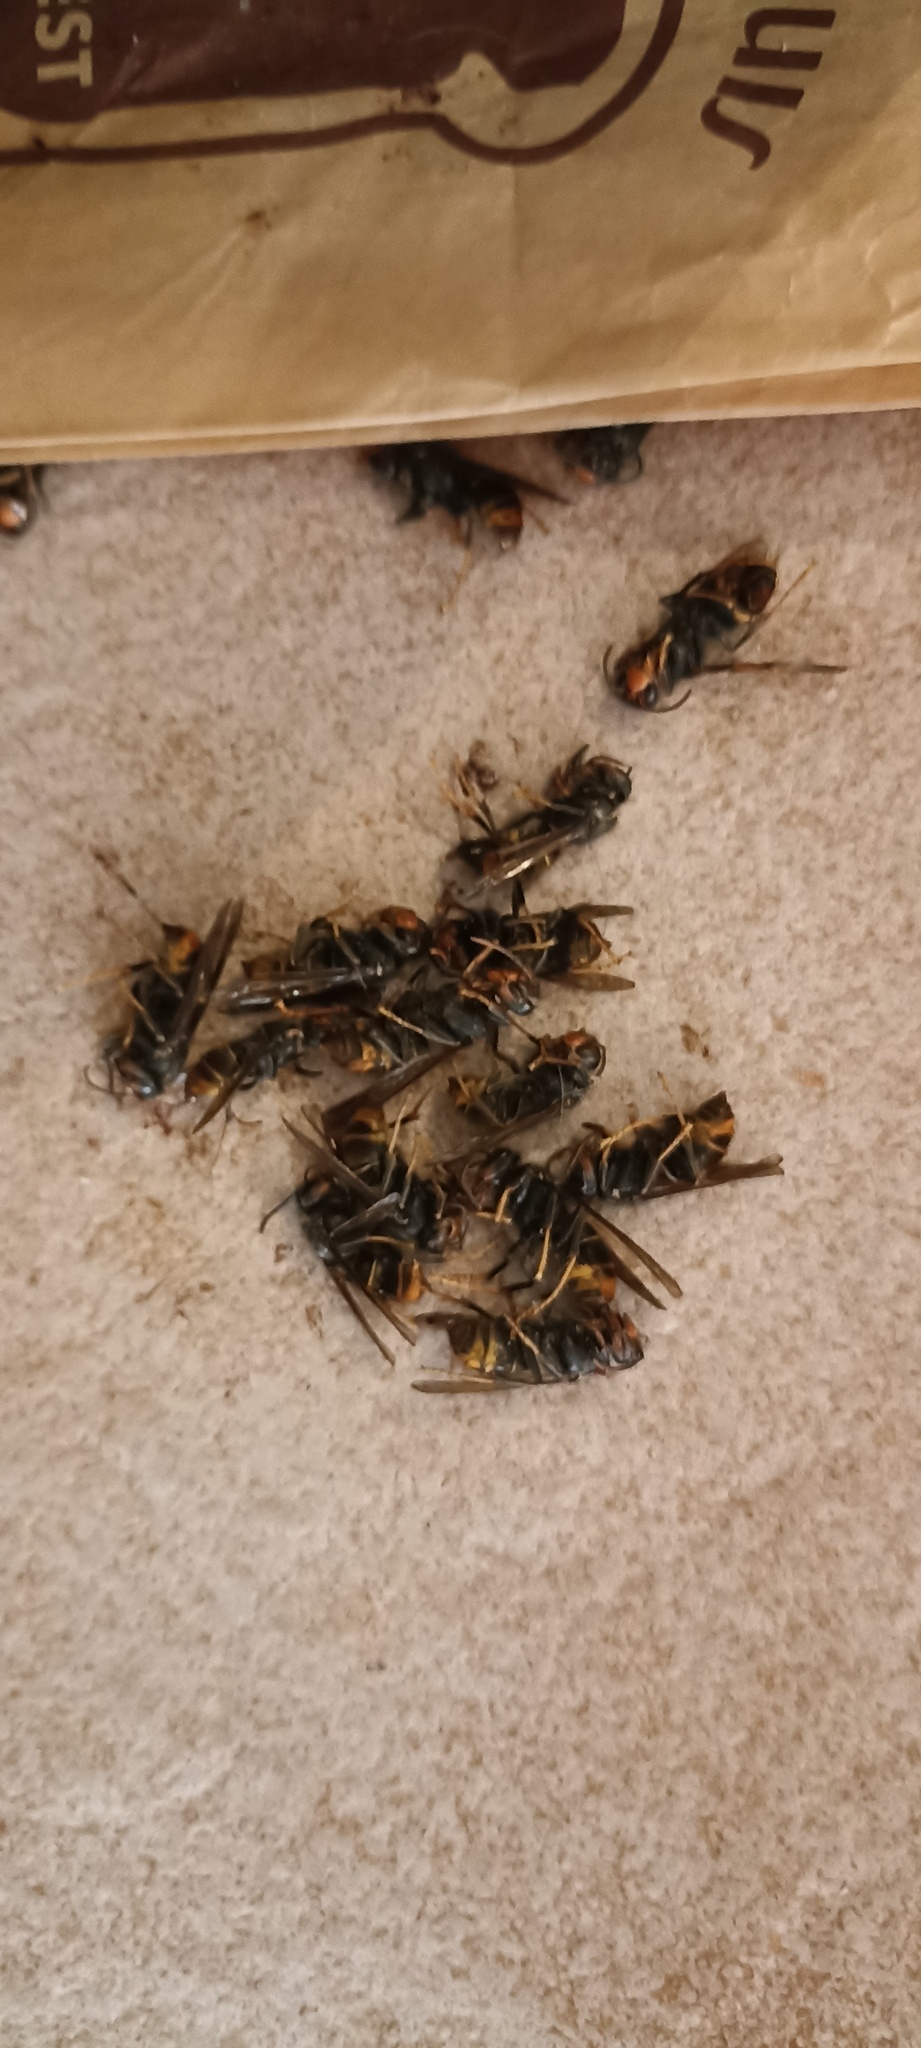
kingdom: Animalia
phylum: Arthropoda
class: Insecta
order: Hymenoptera
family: Vespidae
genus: Vespa
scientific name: Vespa velutina
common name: Asian hornet
